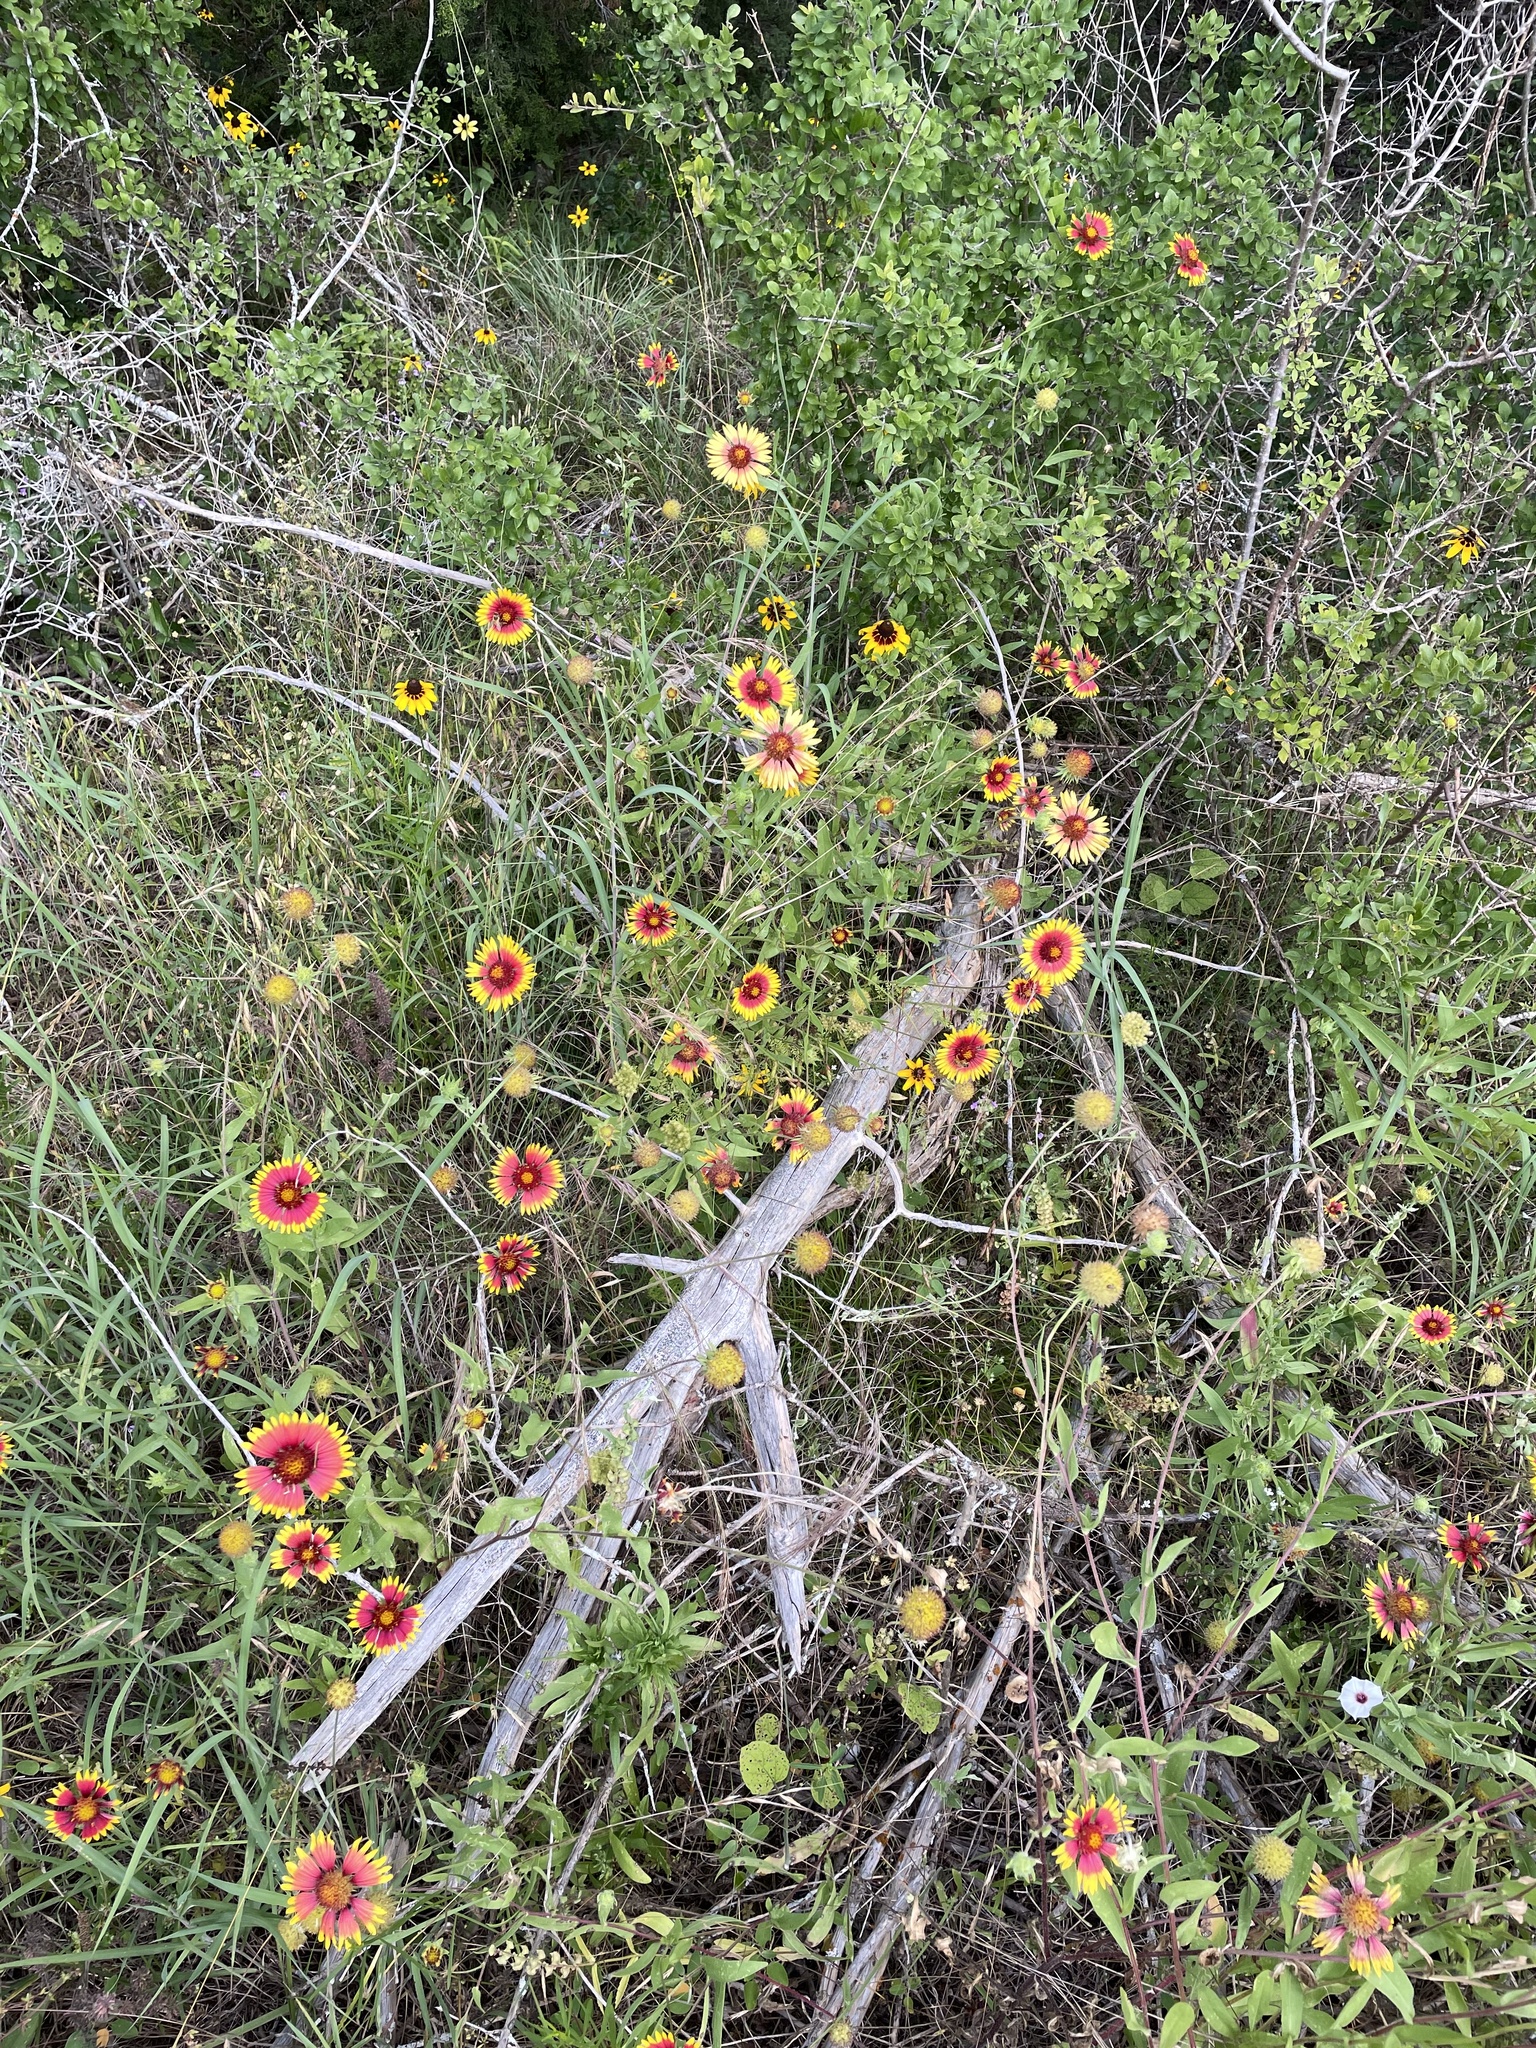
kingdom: Plantae
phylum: Tracheophyta
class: Magnoliopsida
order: Asterales
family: Asteraceae
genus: Gaillardia
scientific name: Gaillardia pulchella
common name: Firewheel
